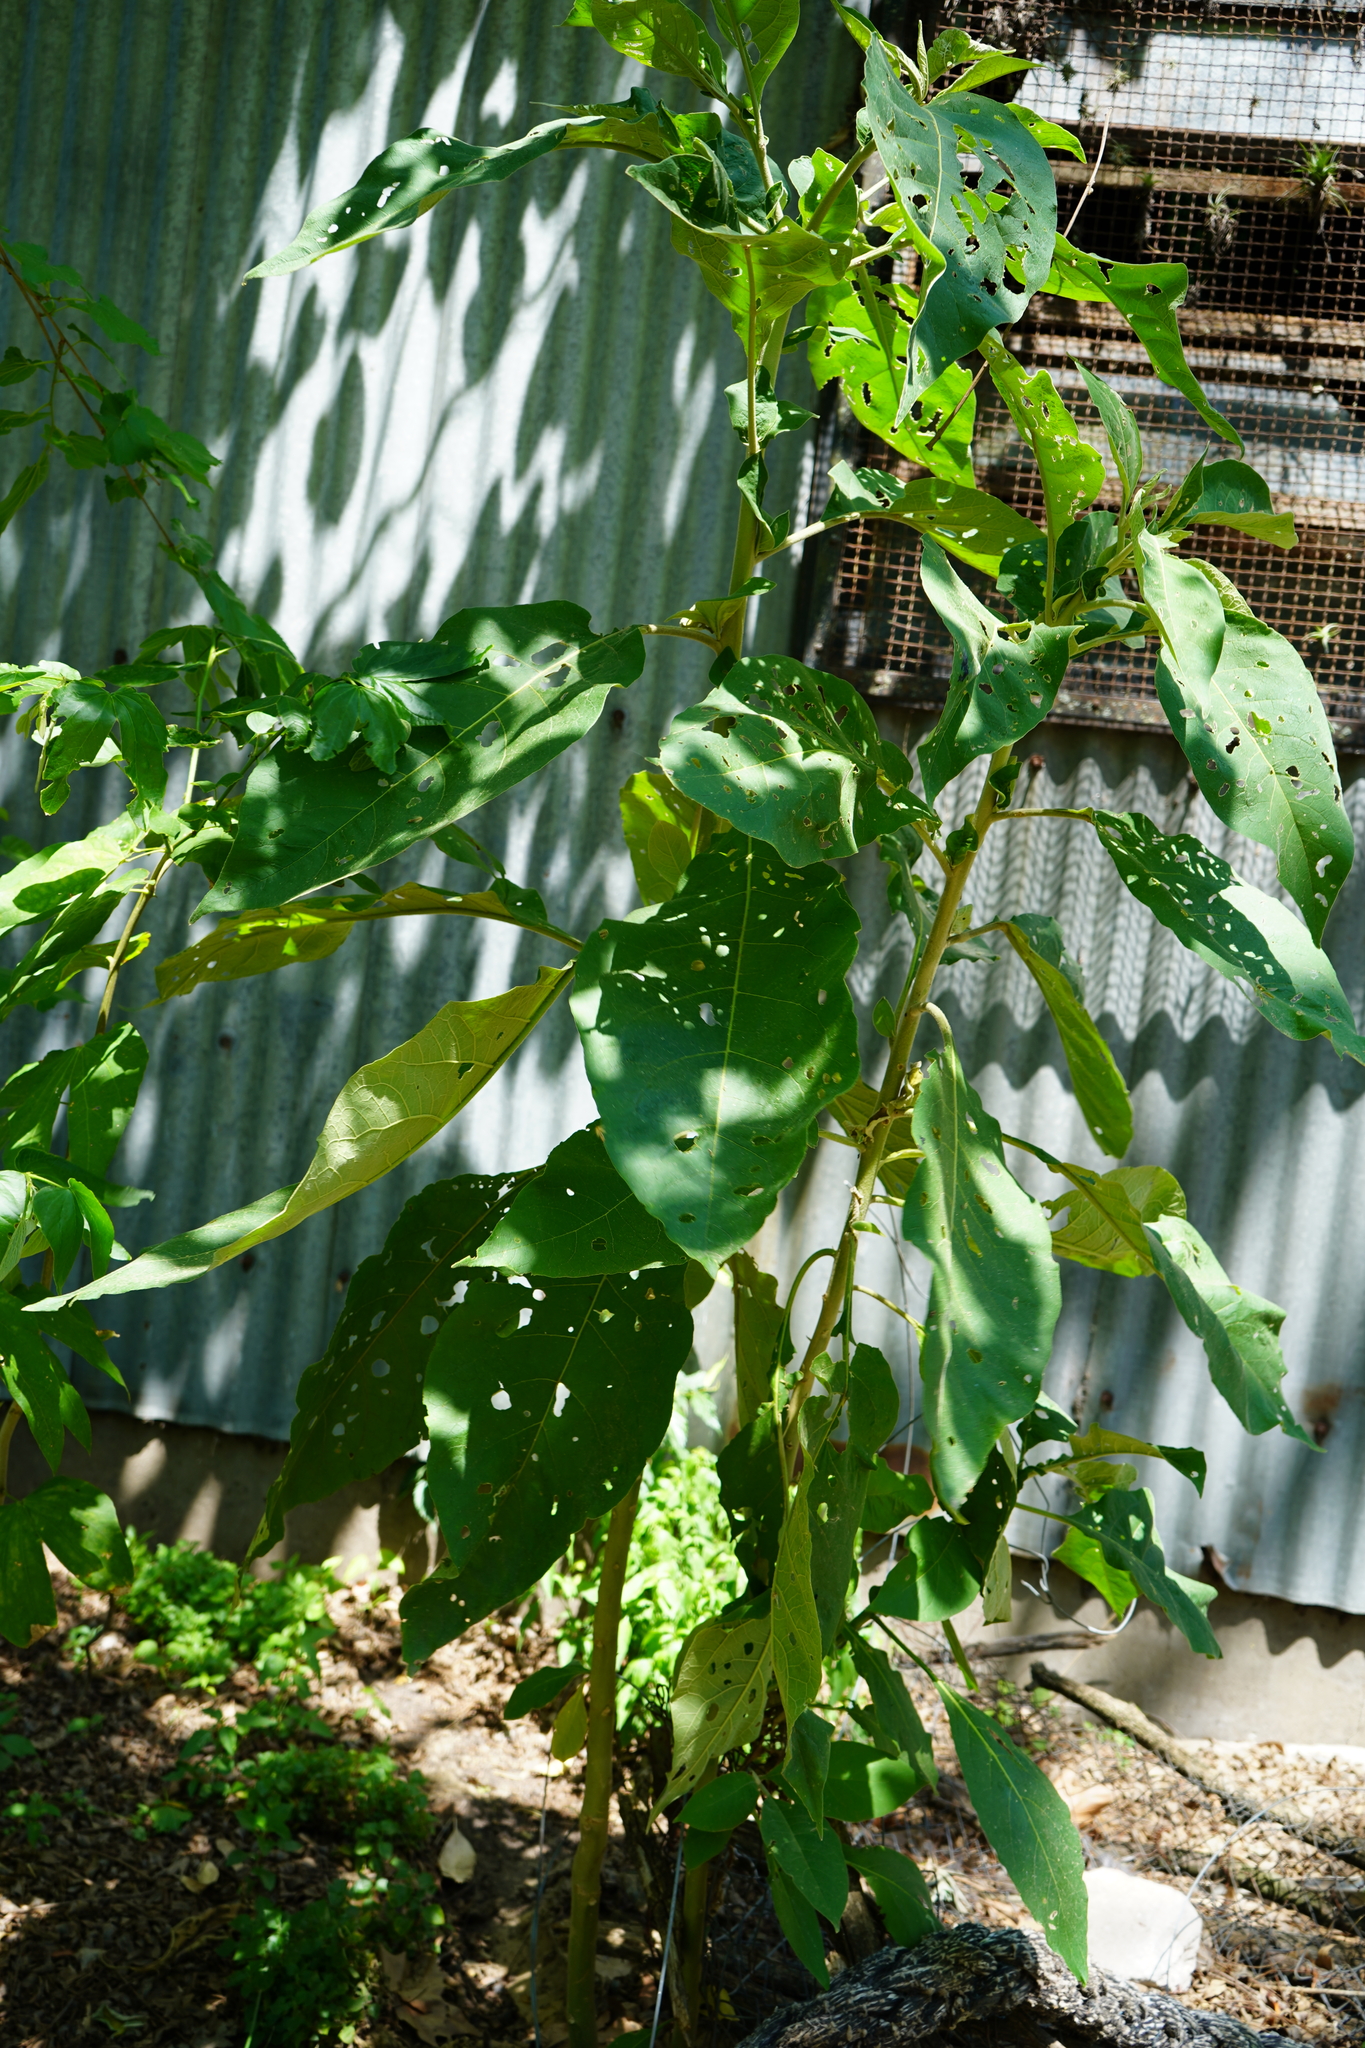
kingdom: Plantae
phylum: Tracheophyta
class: Magnoliopsida
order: Solanales
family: Solanaceae
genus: Solanum
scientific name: Solanum granulosoleprosum
